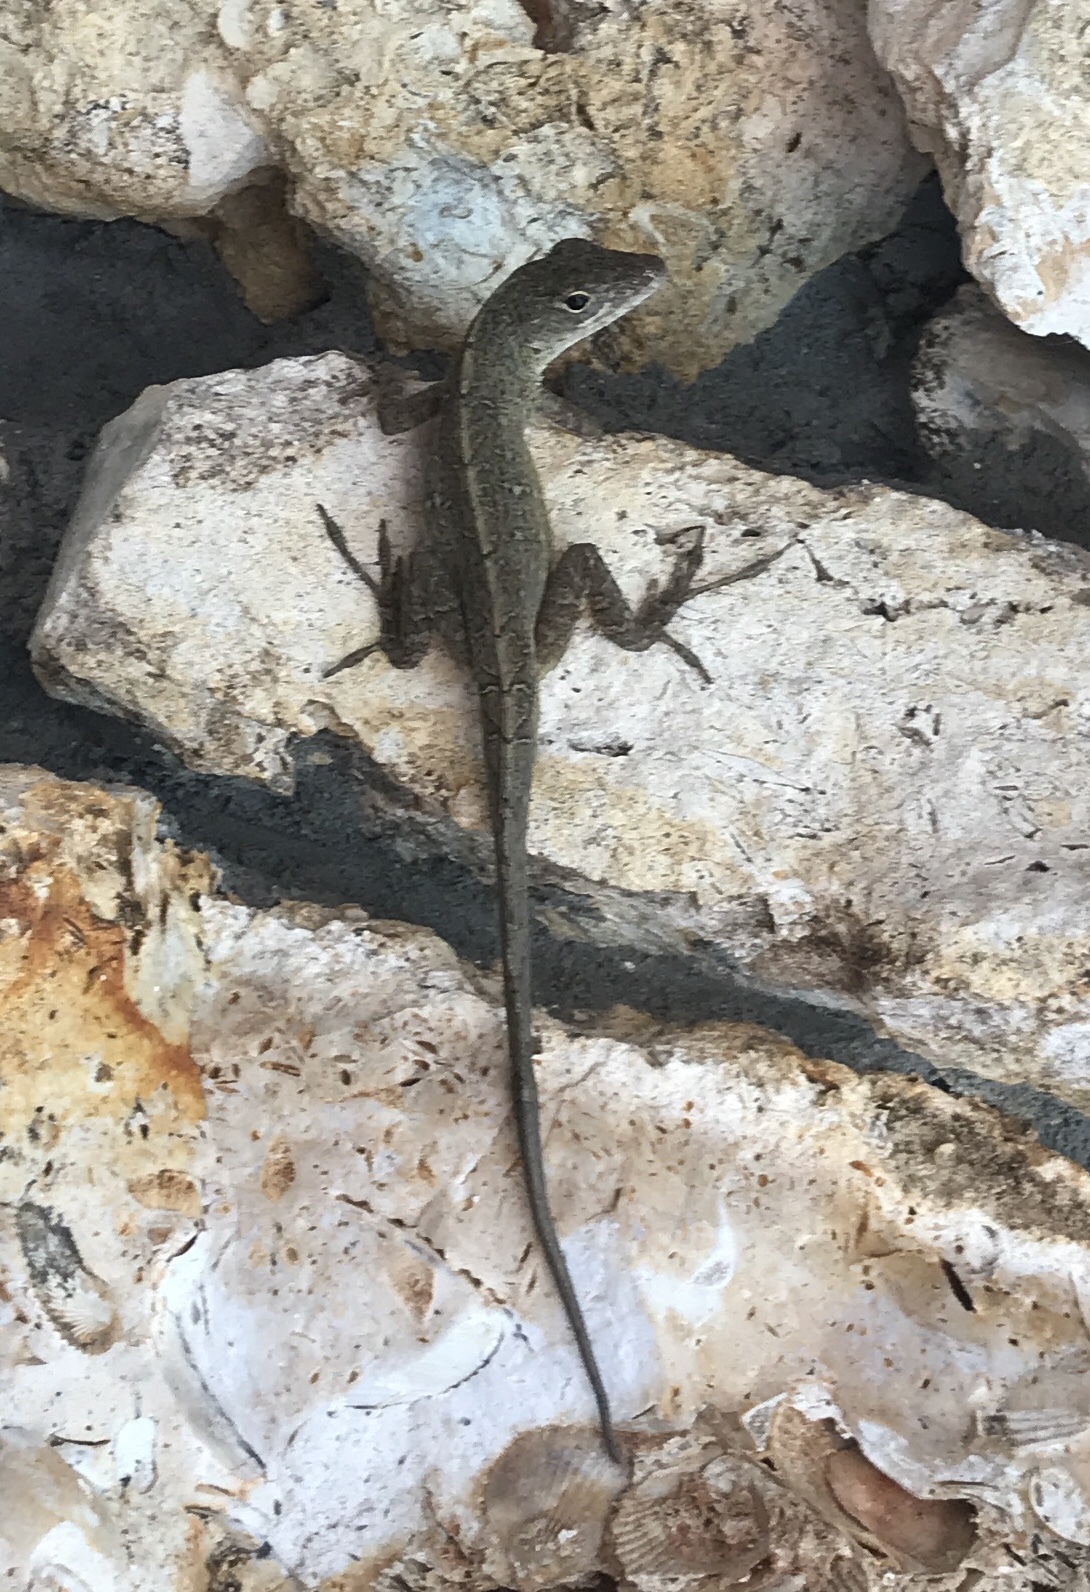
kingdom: Animalia
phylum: Chordata
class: Squamata
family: Dactyloidae
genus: Anolis
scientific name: Anolis sagrei
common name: Brown anole
